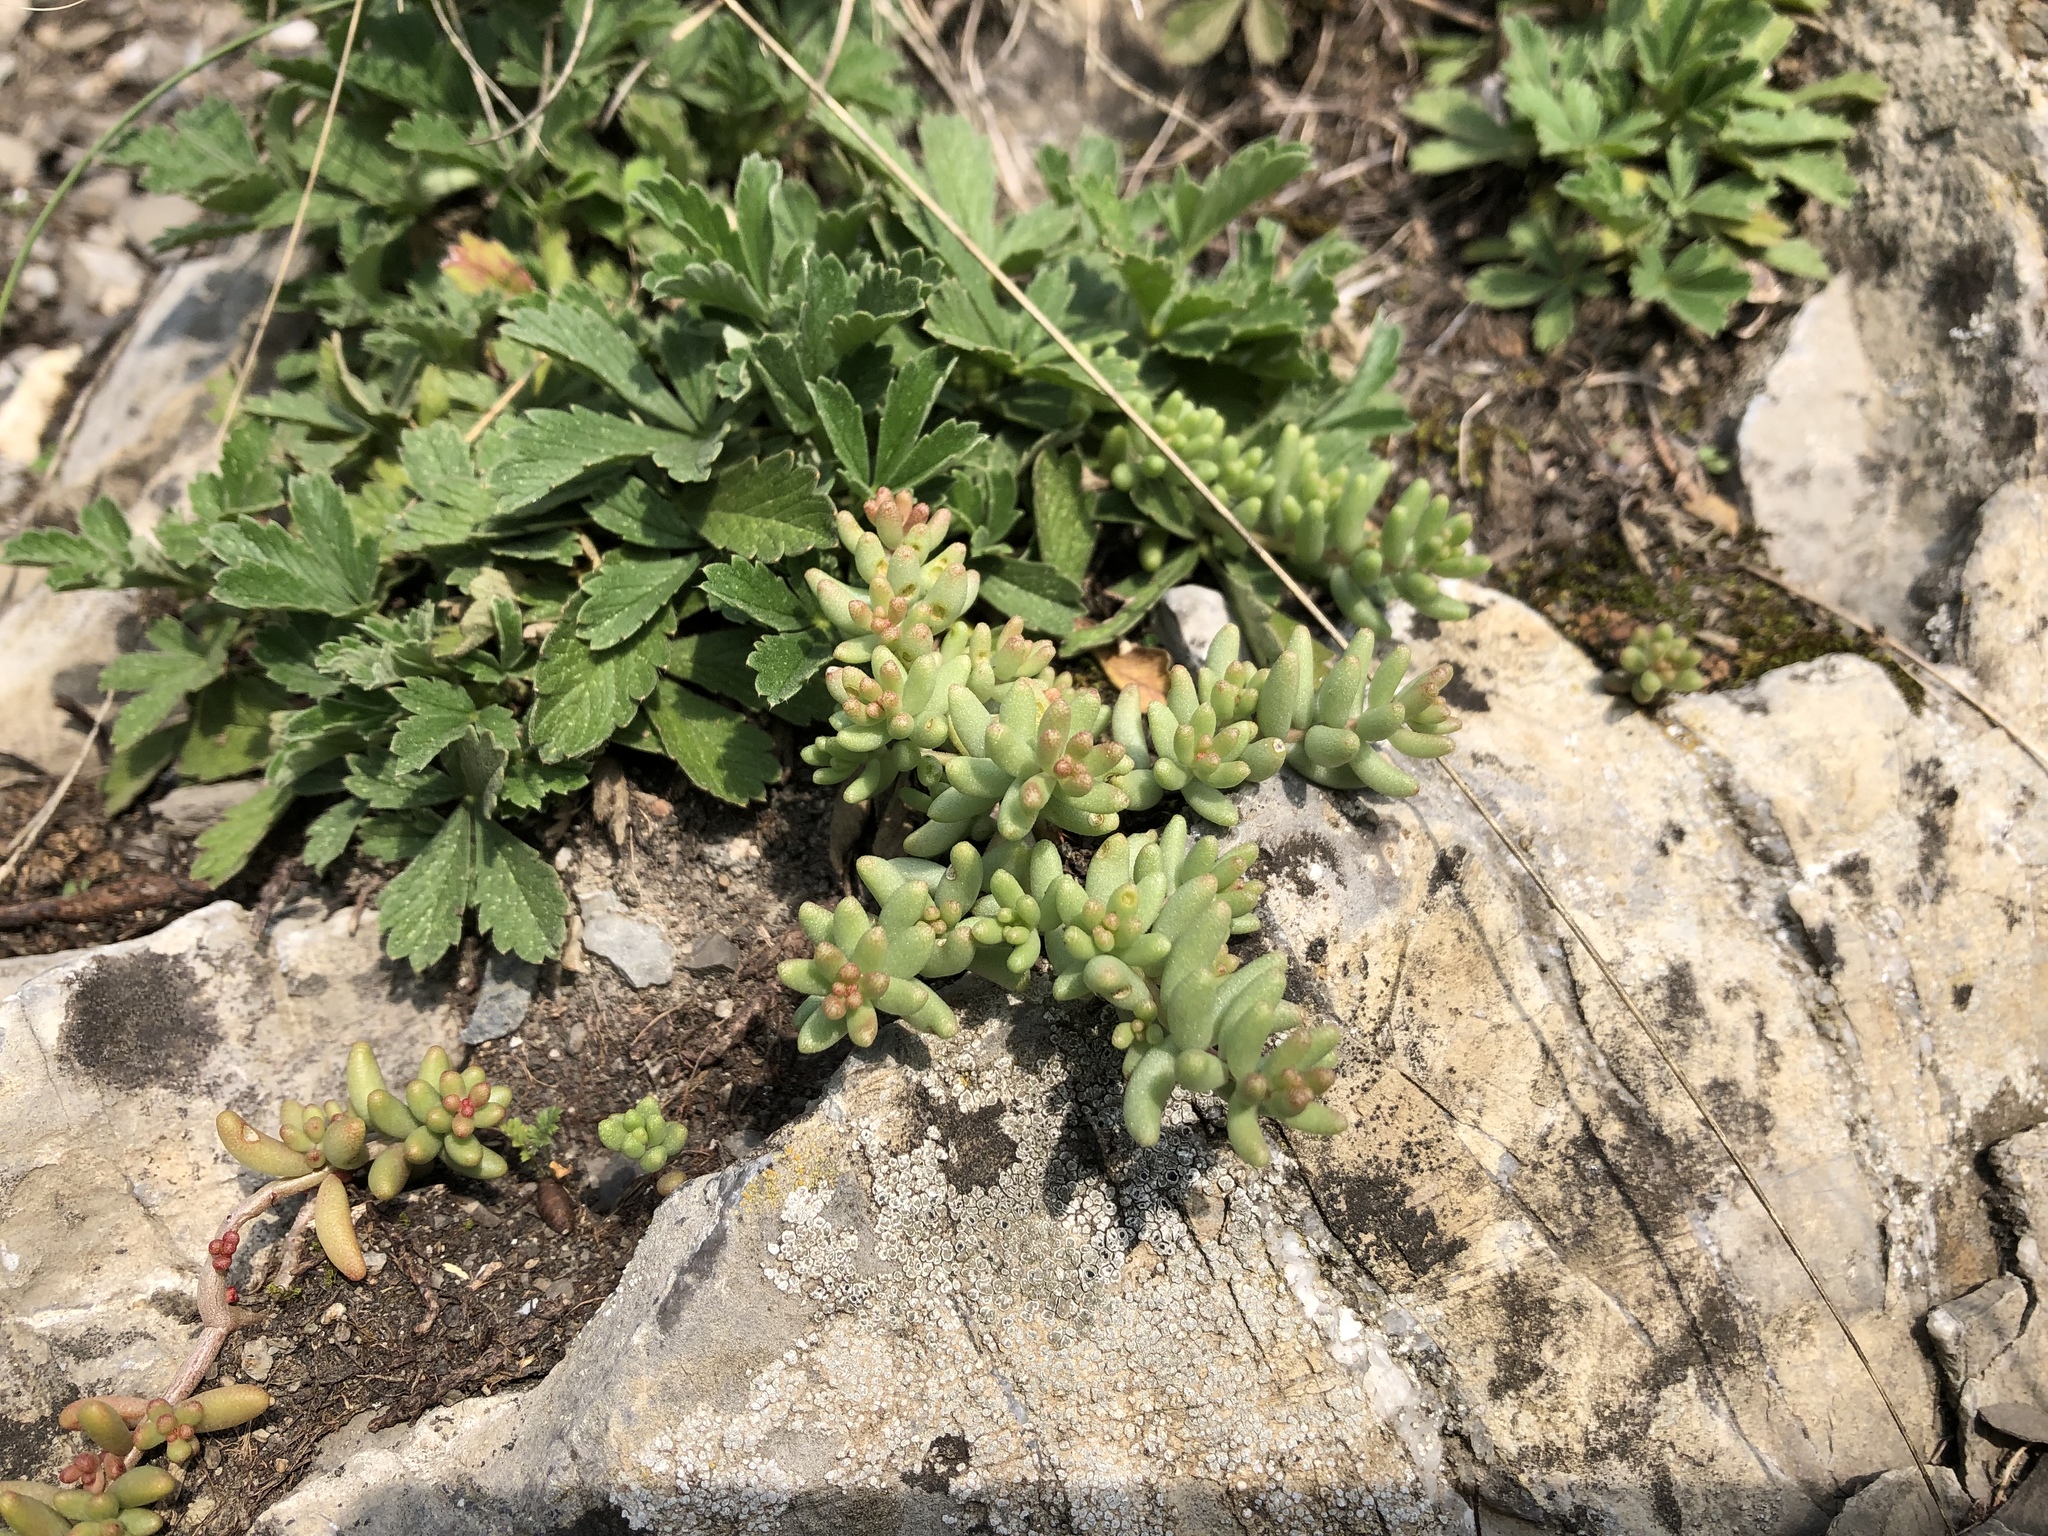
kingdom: Plantae
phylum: Tracheophyta
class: Magnoliopsida
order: Saxifragales
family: Crassulaceae
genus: Sedum
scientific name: Sedum album
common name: White stonecrop
